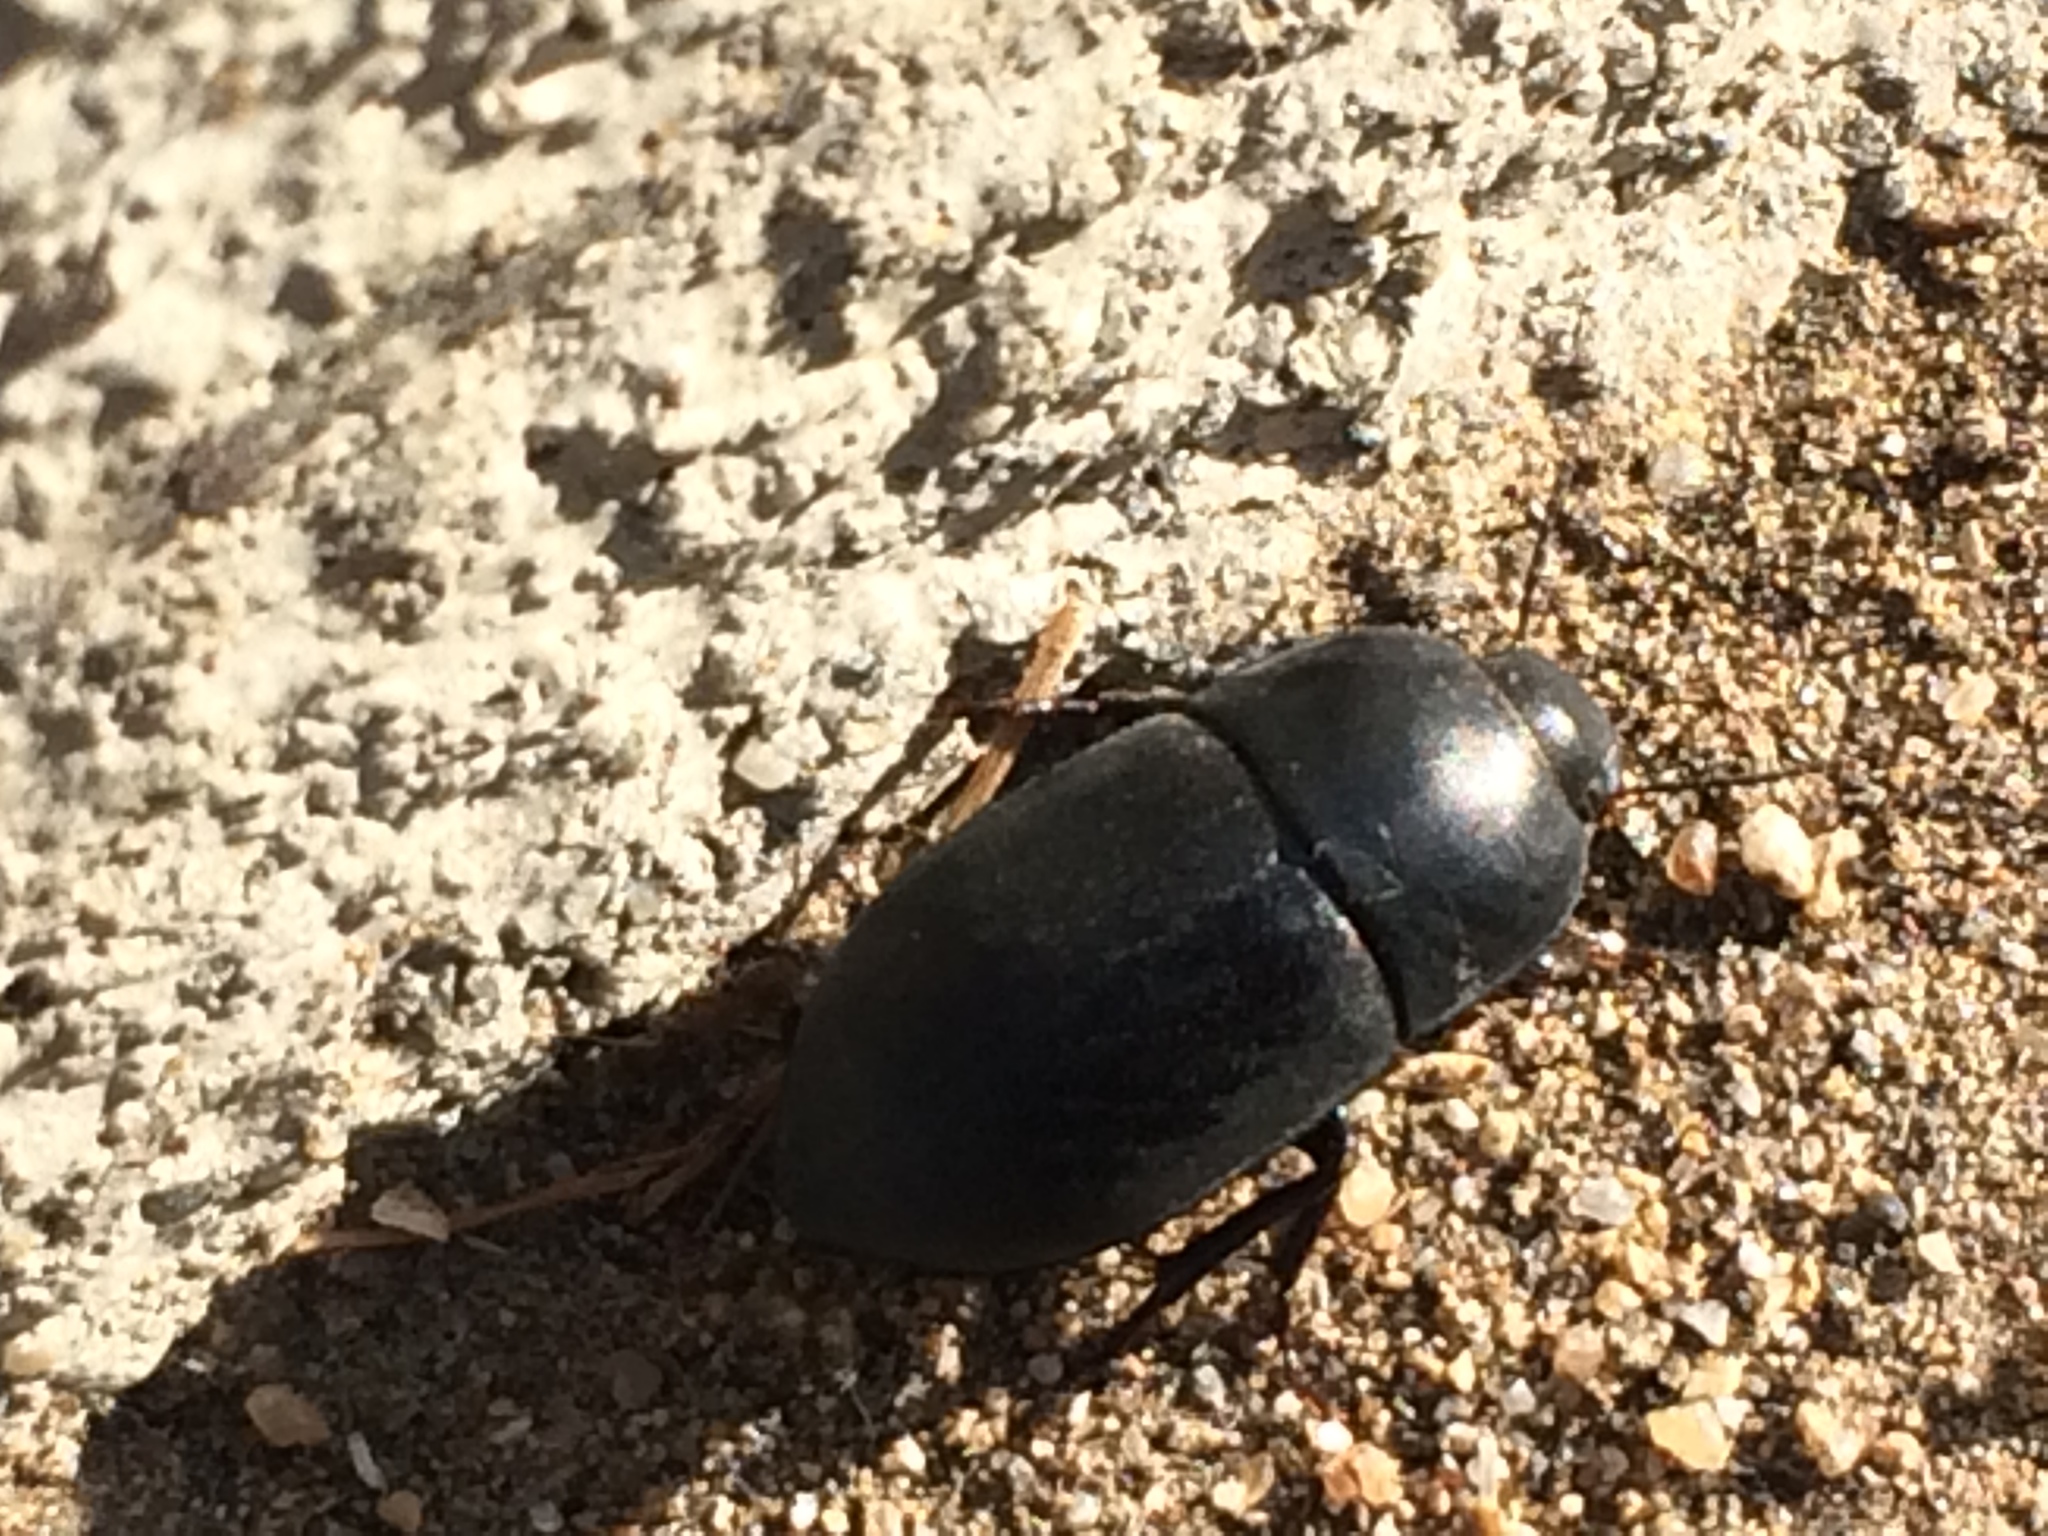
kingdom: Animalia
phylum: Arthropoda
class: Insecta
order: Coleoptera
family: Tenebrionidae
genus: Coniontis
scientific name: Coniontis
